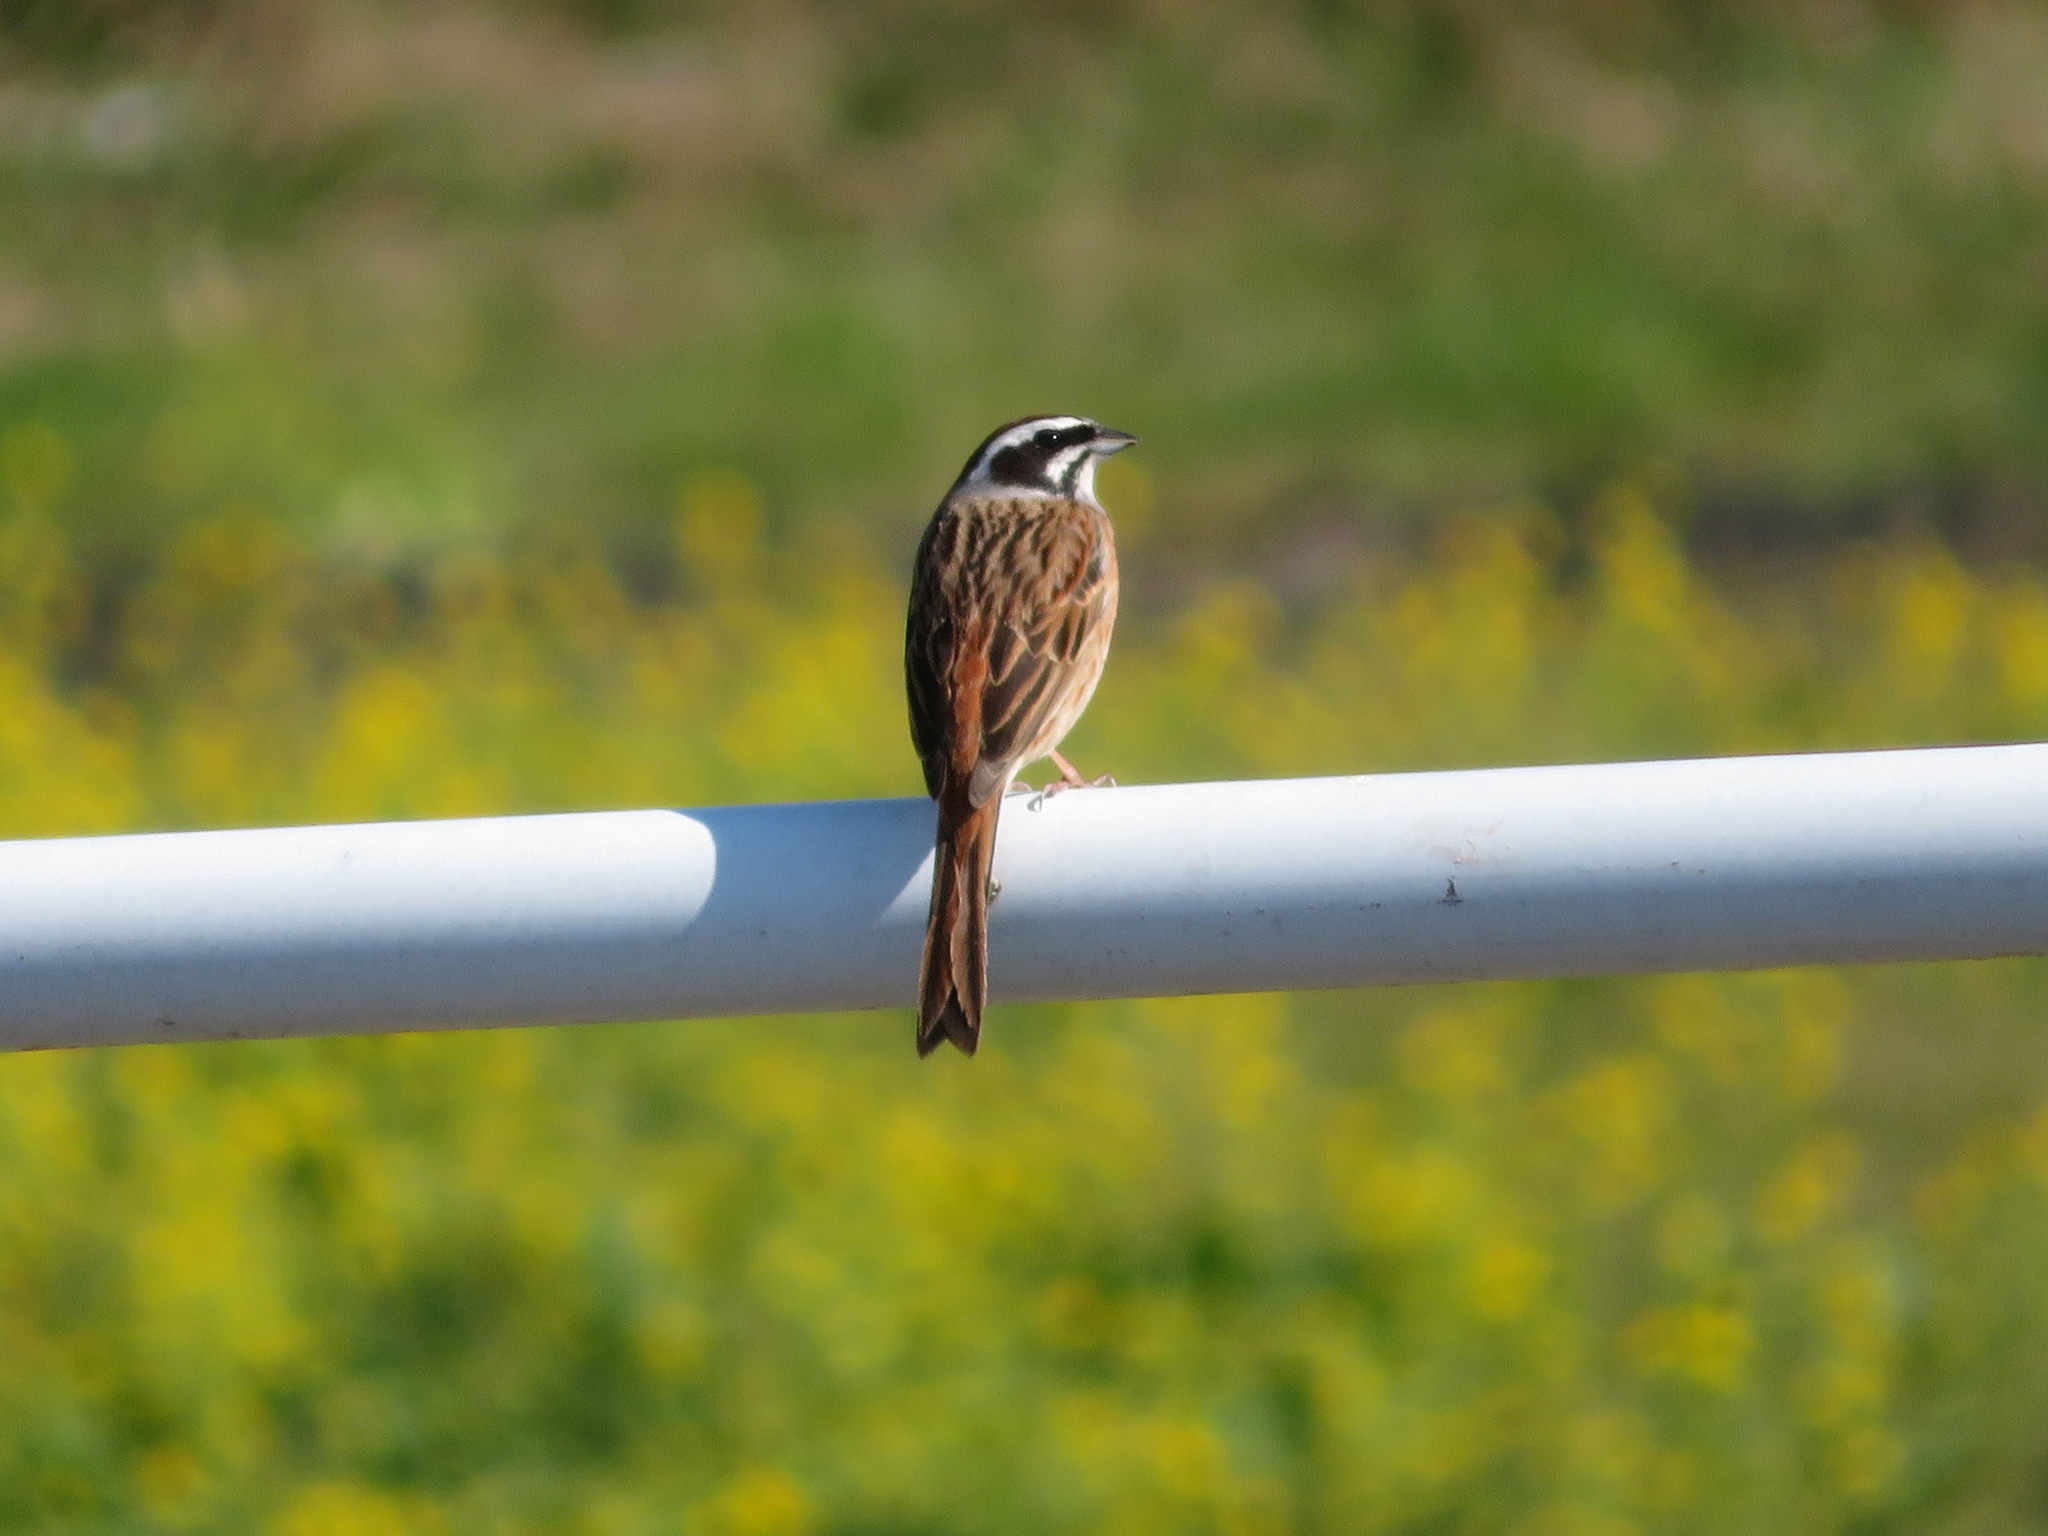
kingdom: Animalia
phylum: Chordata
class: Aves
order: Passeriformes
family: Emberizidae
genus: Emberiza
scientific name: Emberiza cioides
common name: Meadow bunting
